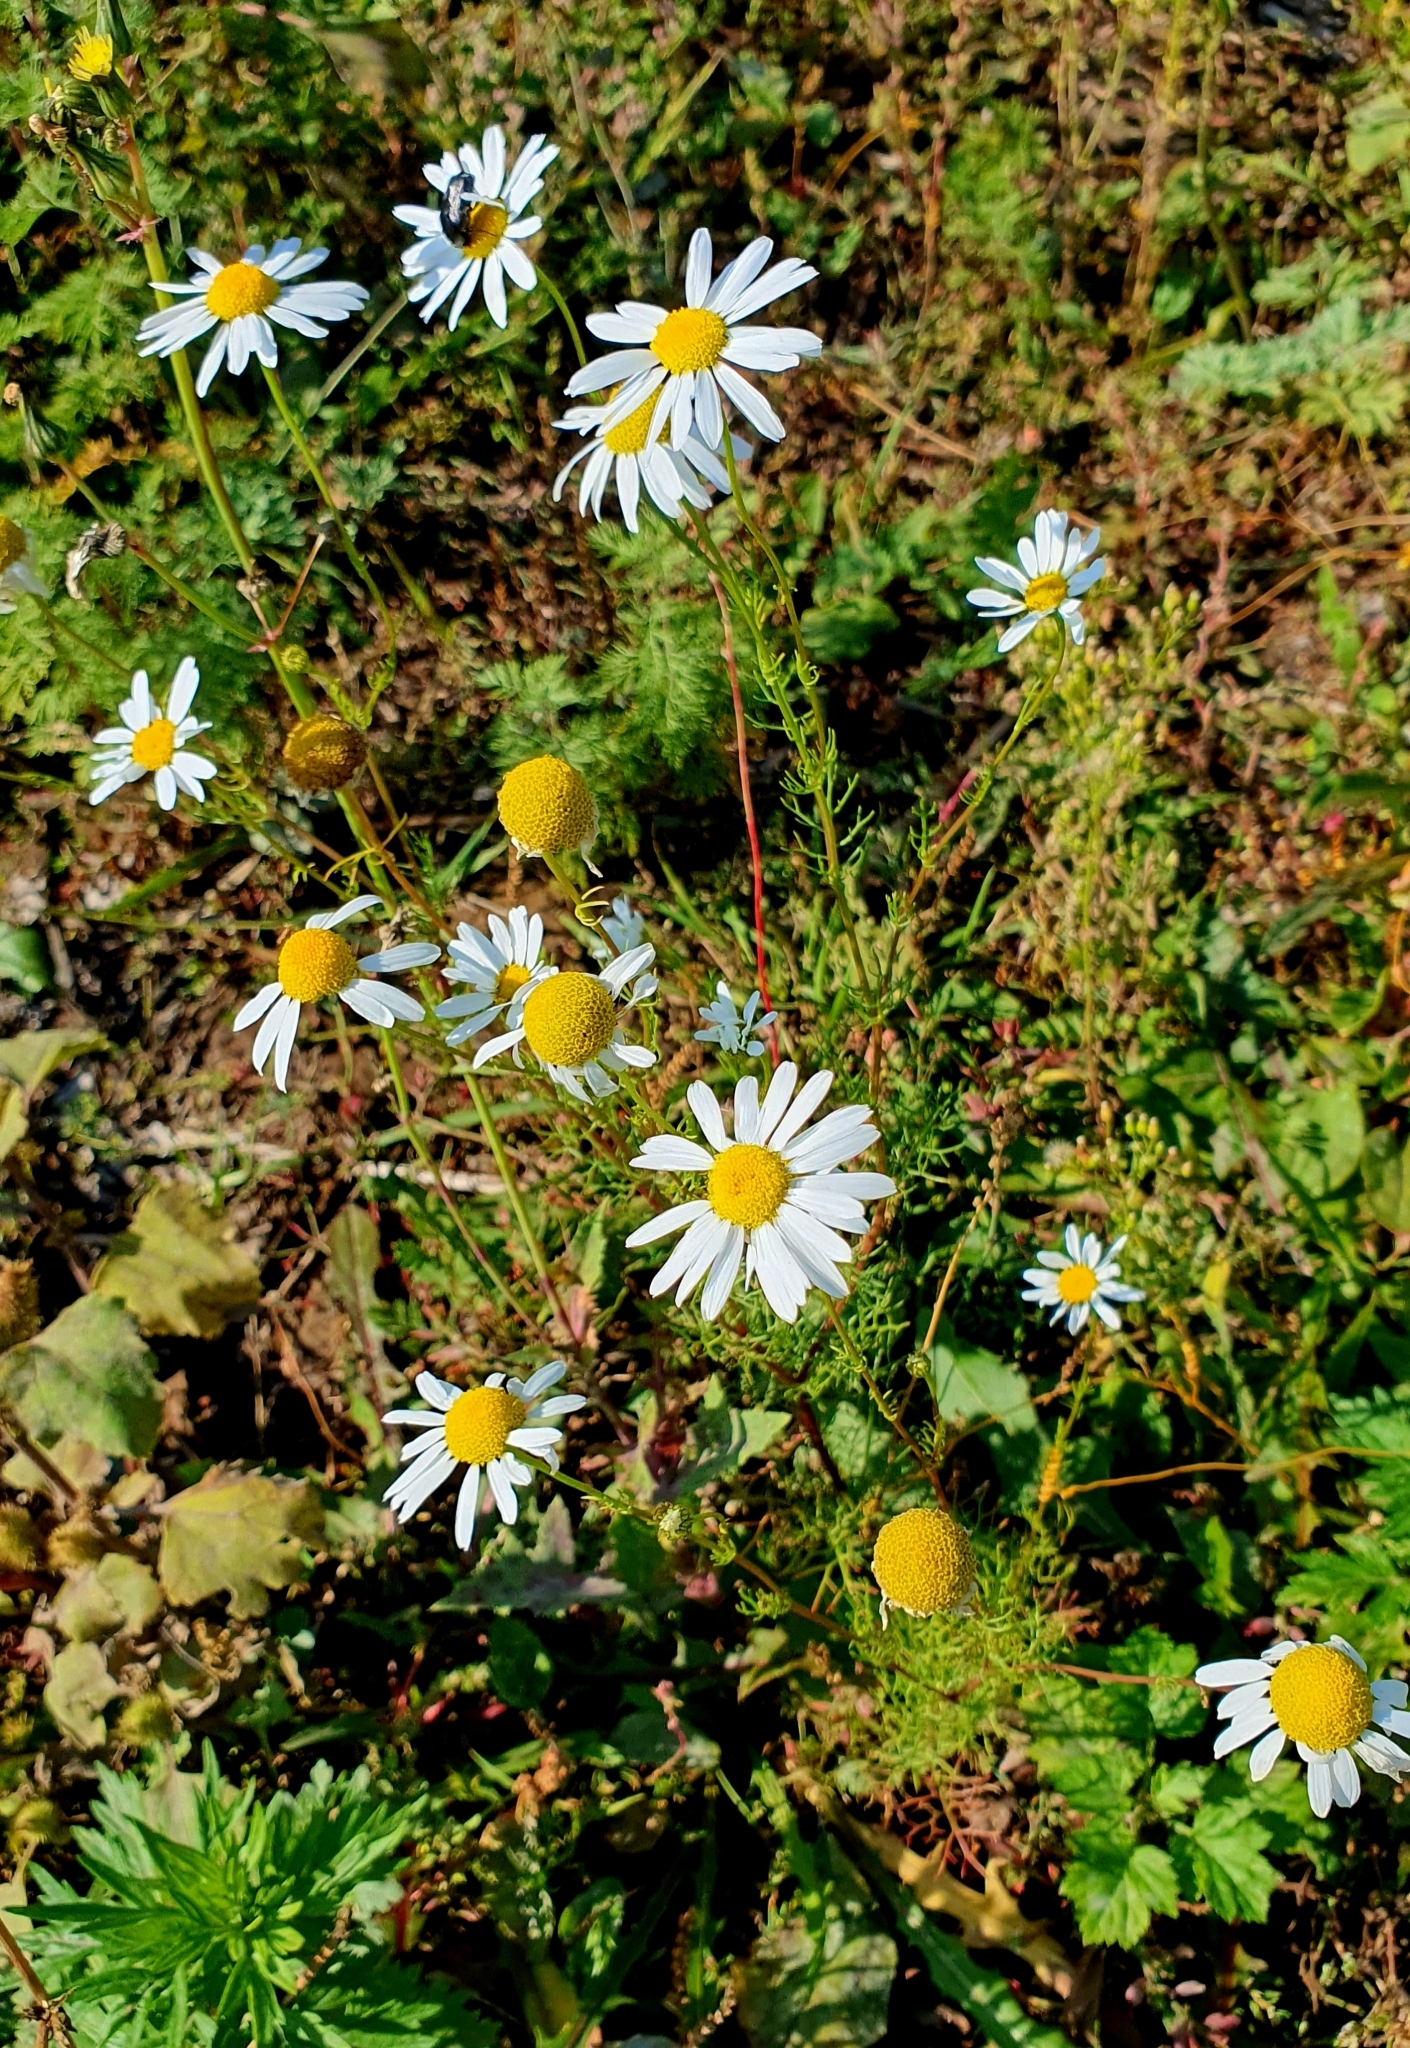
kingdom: Plantae
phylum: Tracheophyta
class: Magnoliopsida
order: Asterales
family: Asteraceae
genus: Tripleurospermum
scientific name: Tripleurospermum inodorum
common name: Scentless mayweed
